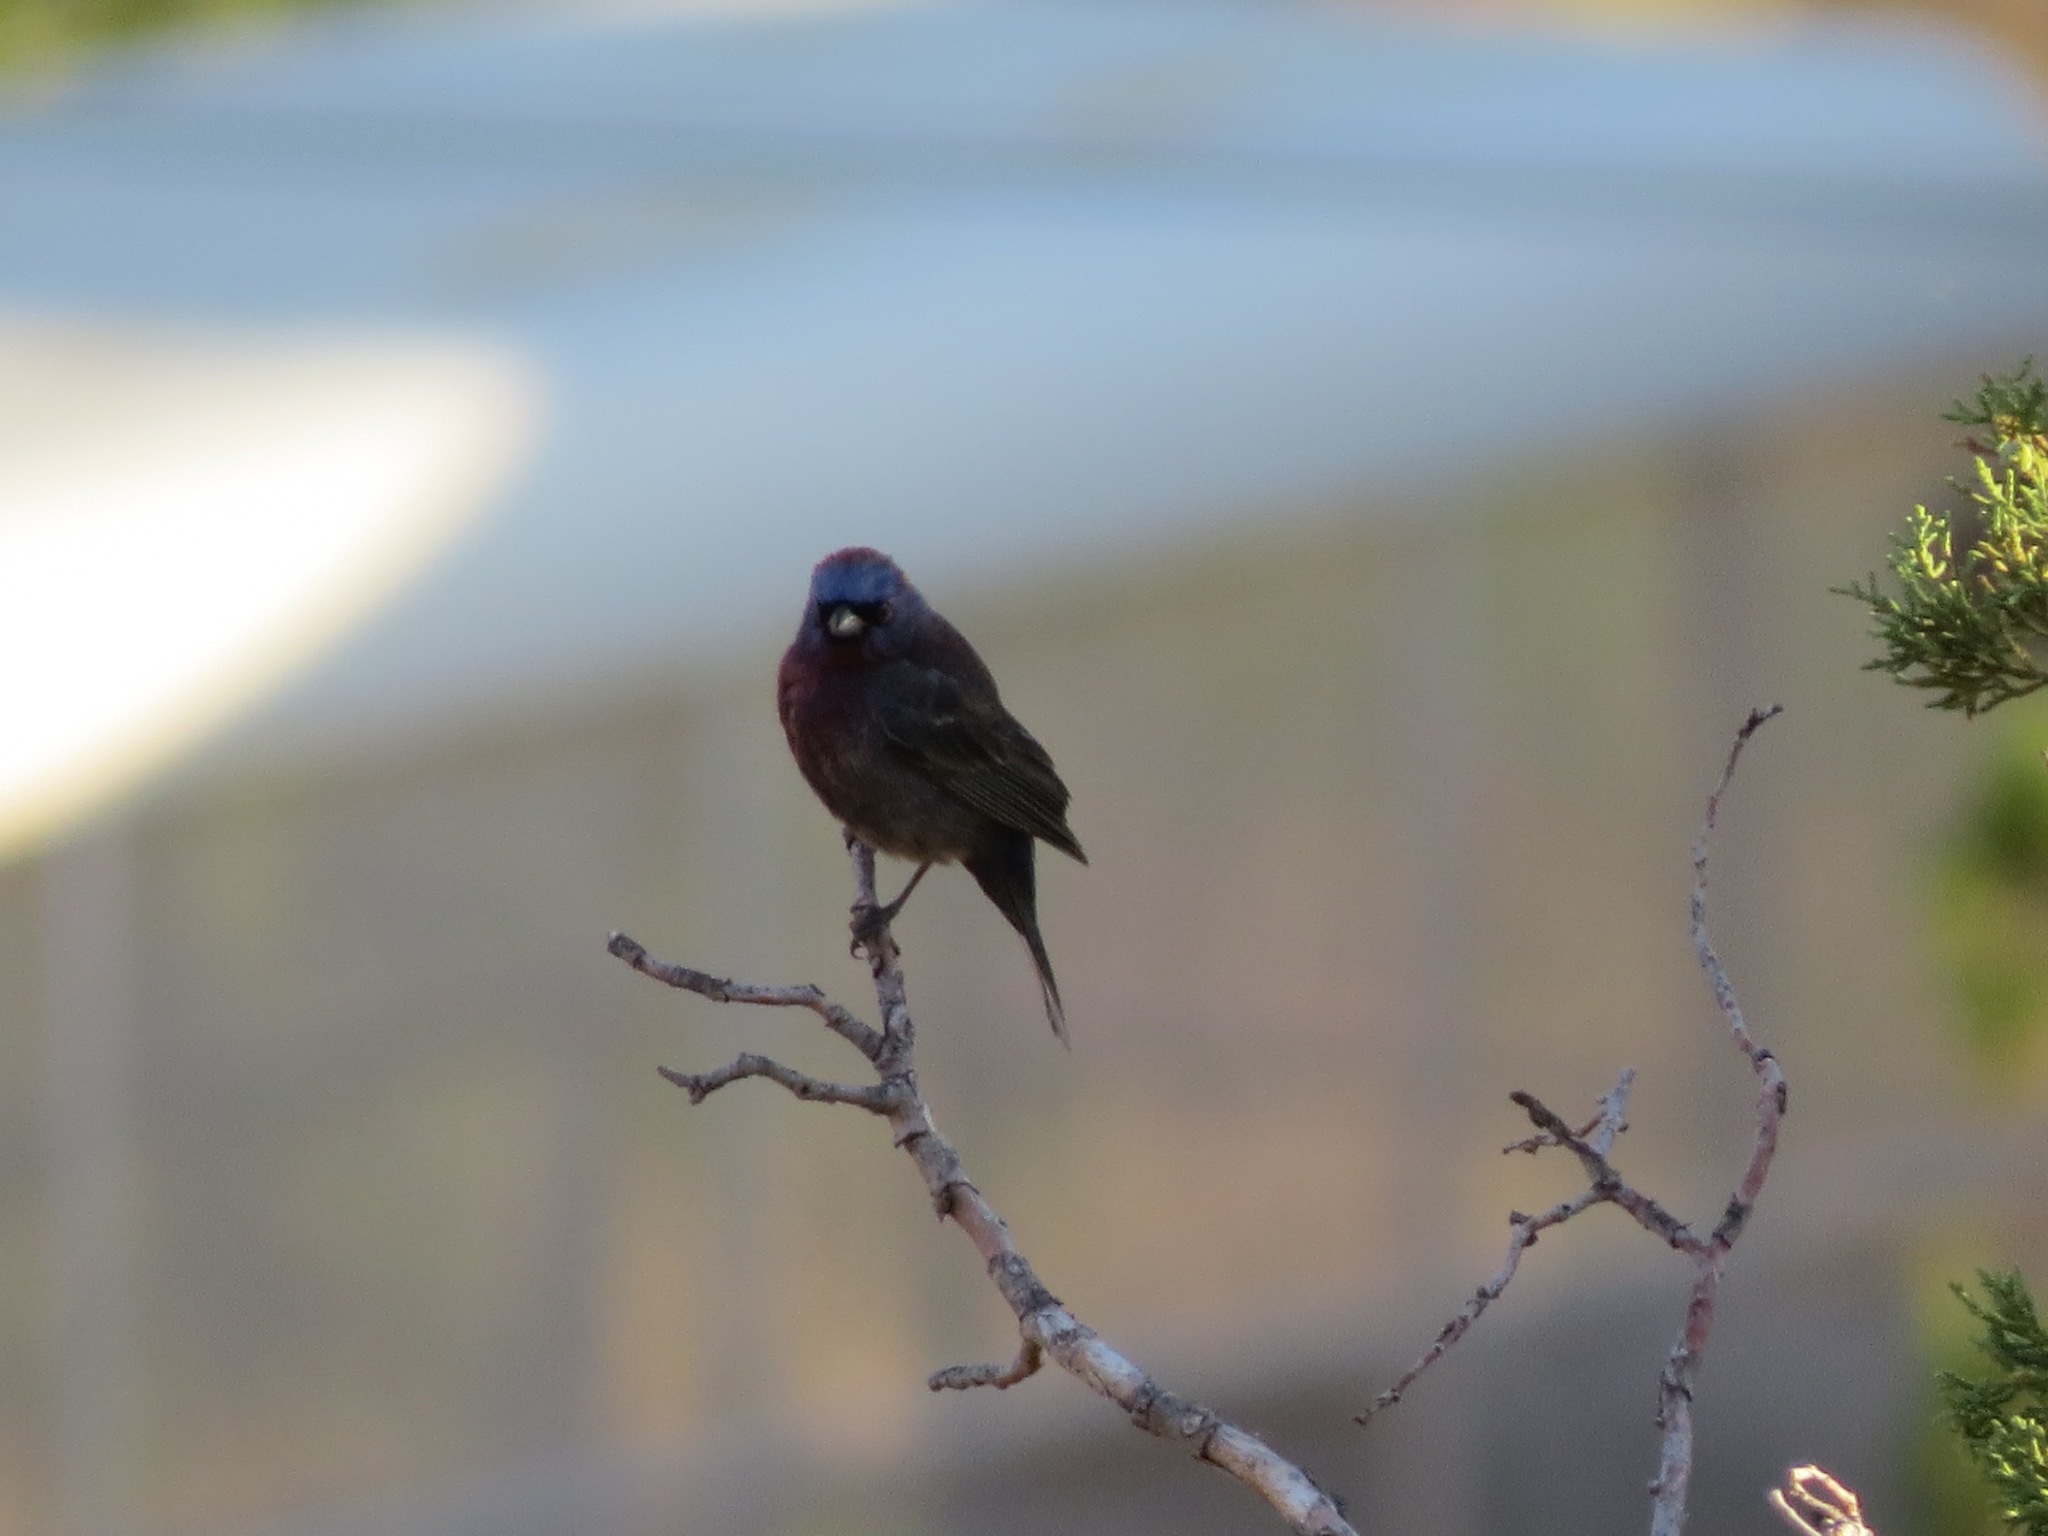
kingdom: Animalia
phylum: Chordata
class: Aves
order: Passeriformes
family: Cardinalidae
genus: Passerina
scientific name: Passerina versicolor
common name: Varied bunting
